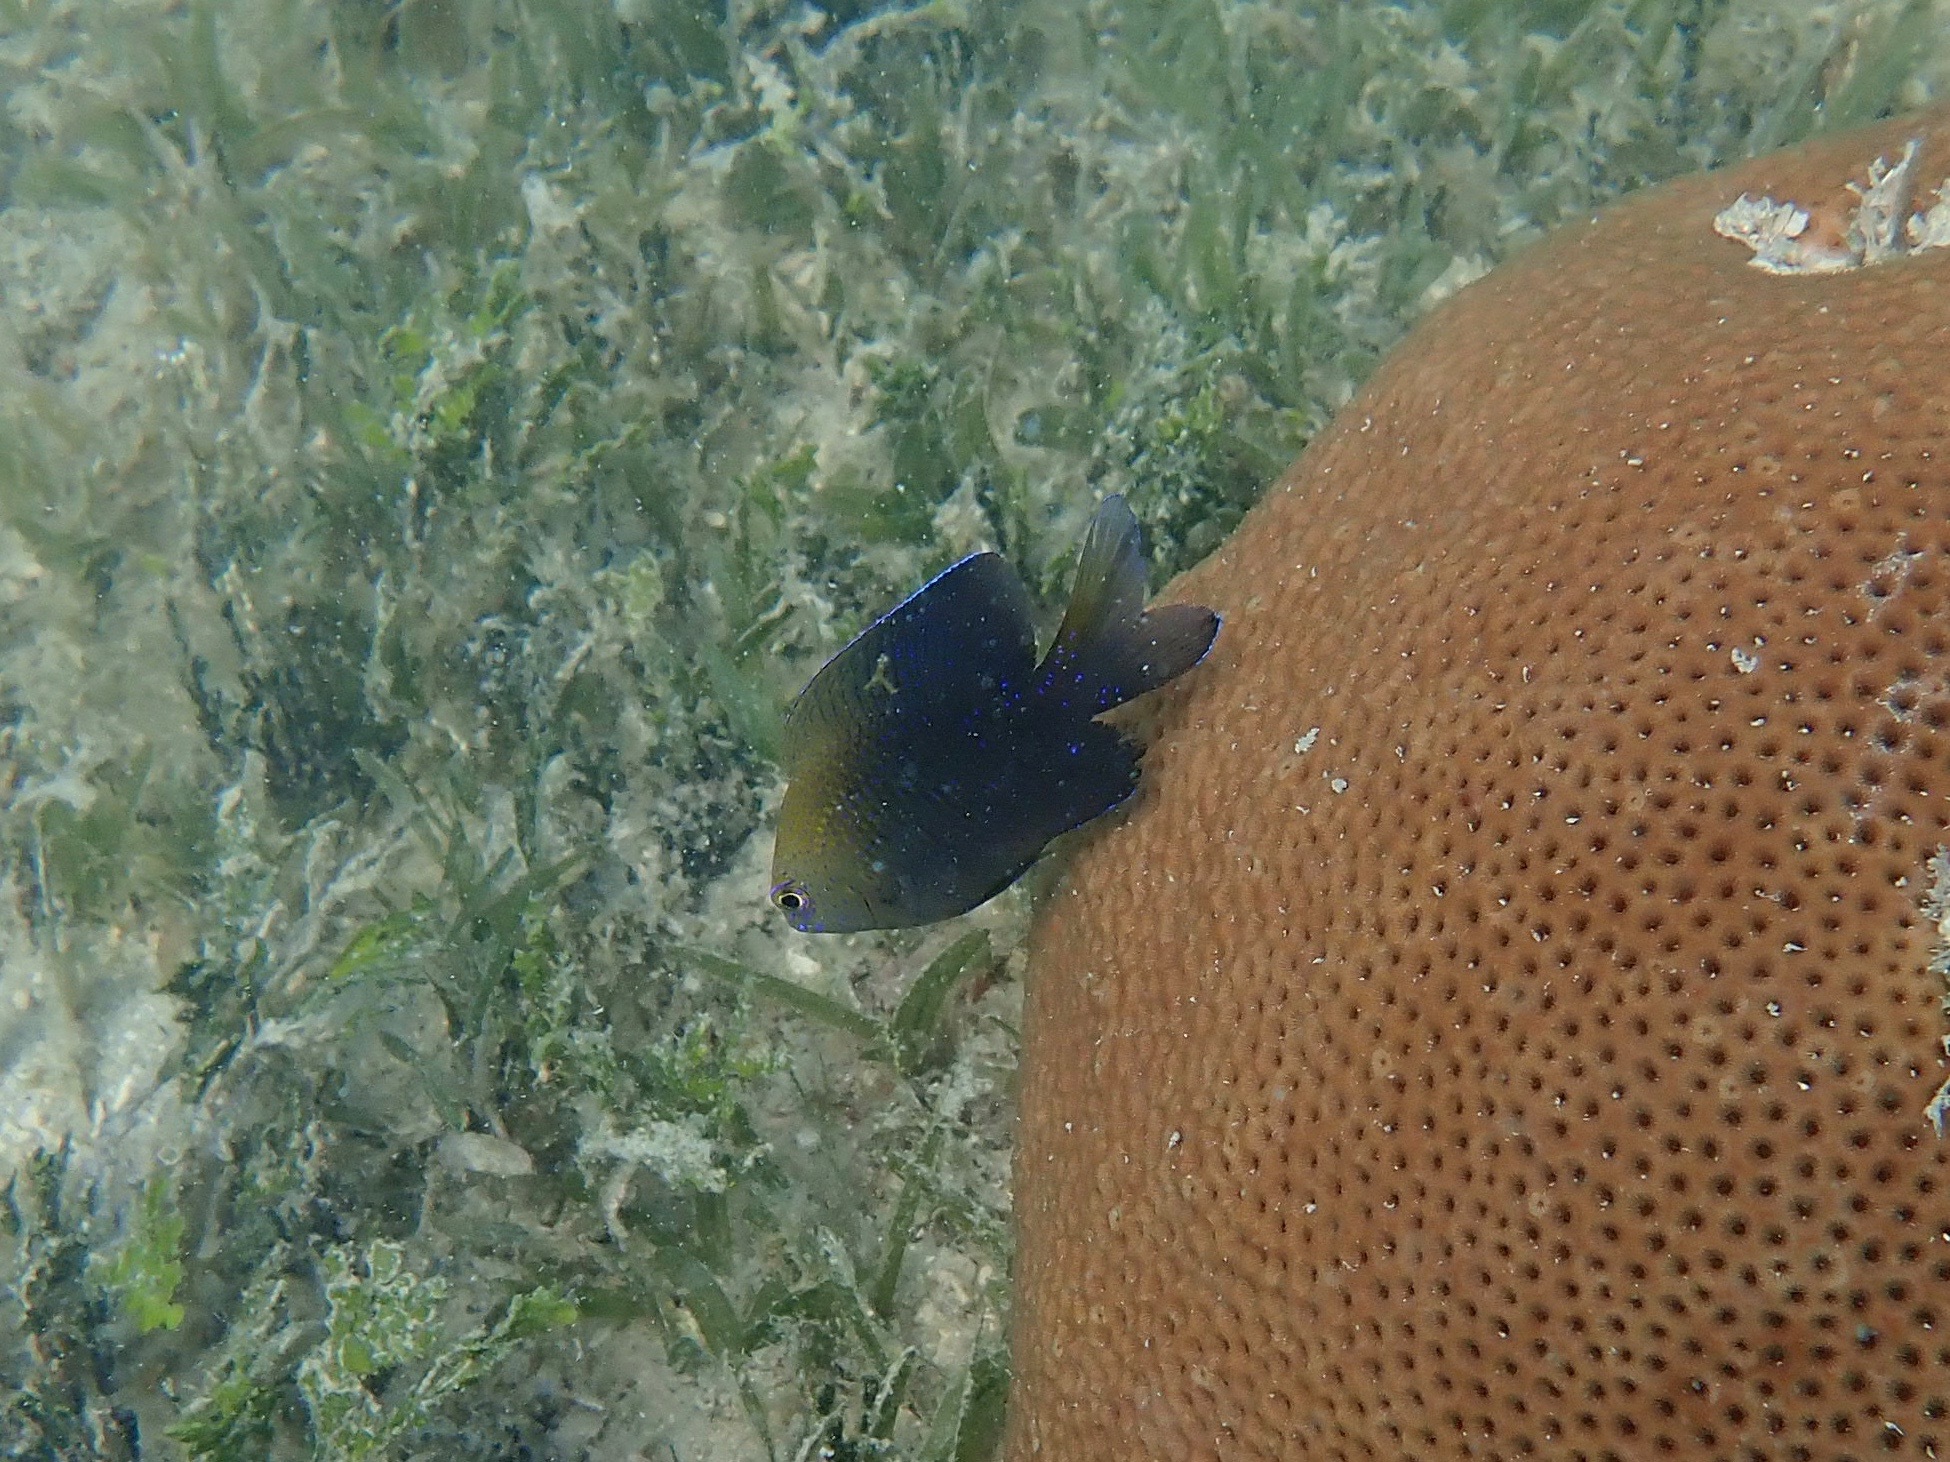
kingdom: Animalia
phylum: Chordata
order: Perciformes
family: Pomacentridae
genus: Stegastes
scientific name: Stegastes leucostictus
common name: Beaugregory
